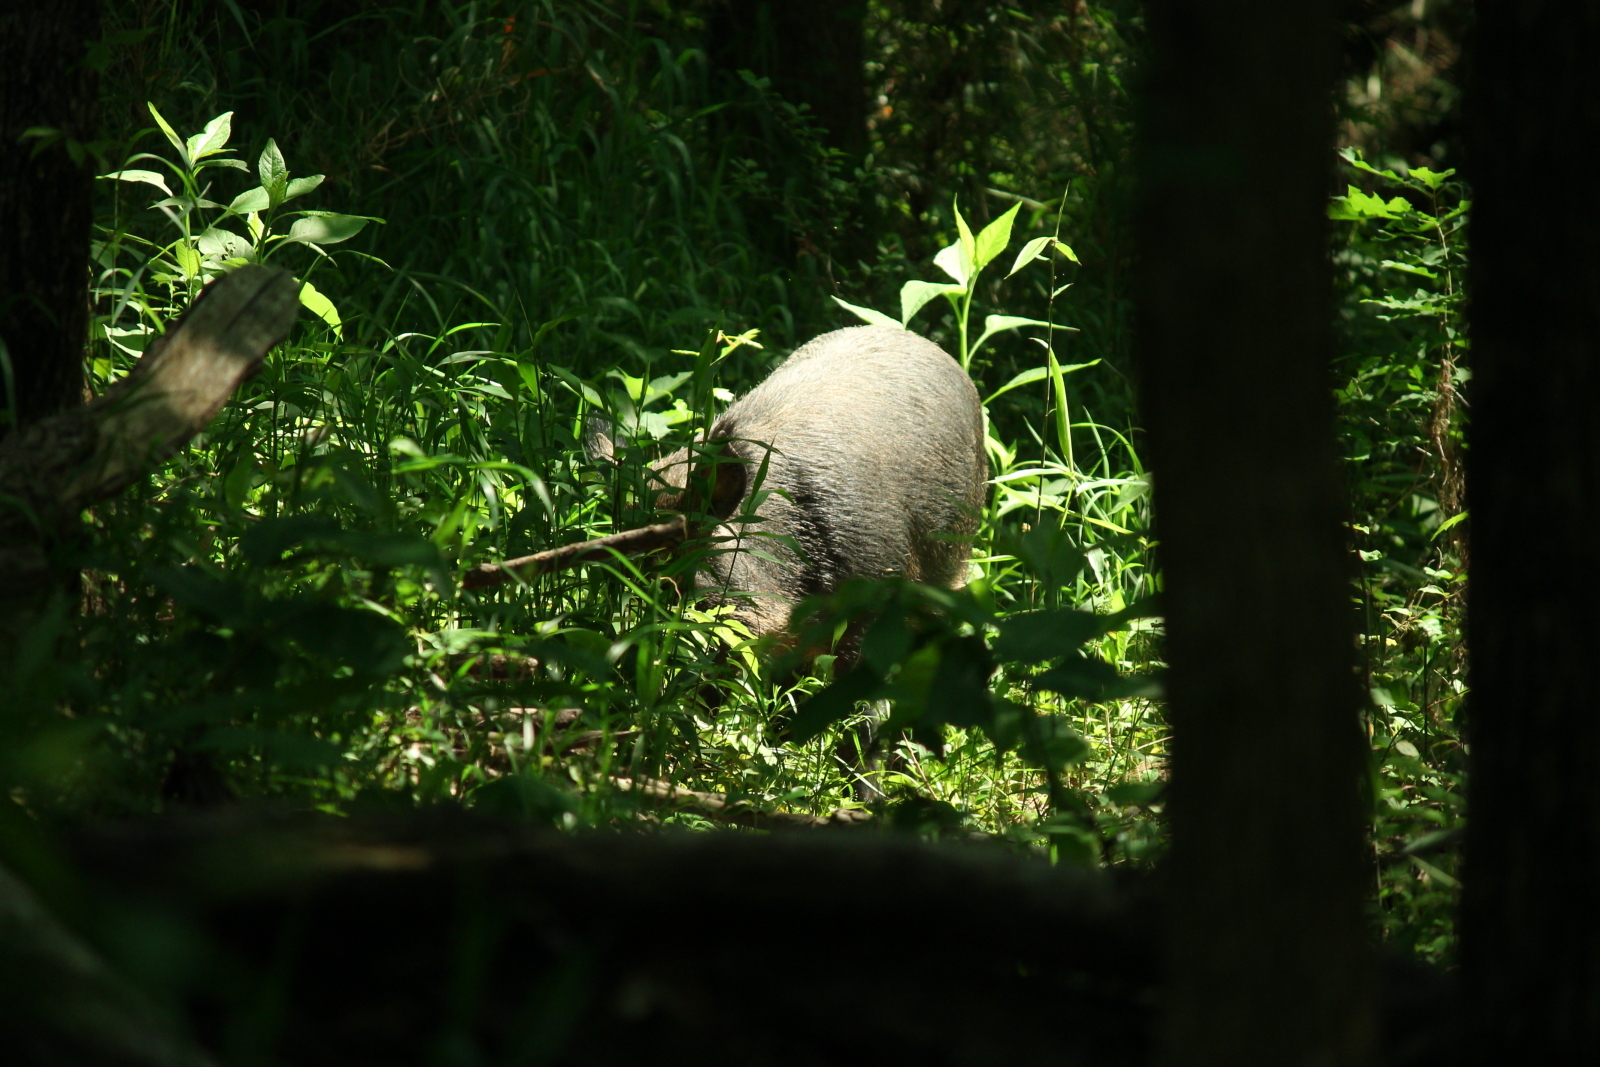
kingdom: Animalia
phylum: Chordata
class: Mammalia
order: Artiodactyla
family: Suidae
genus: Sus
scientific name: Sus scrofa
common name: Wild boar
